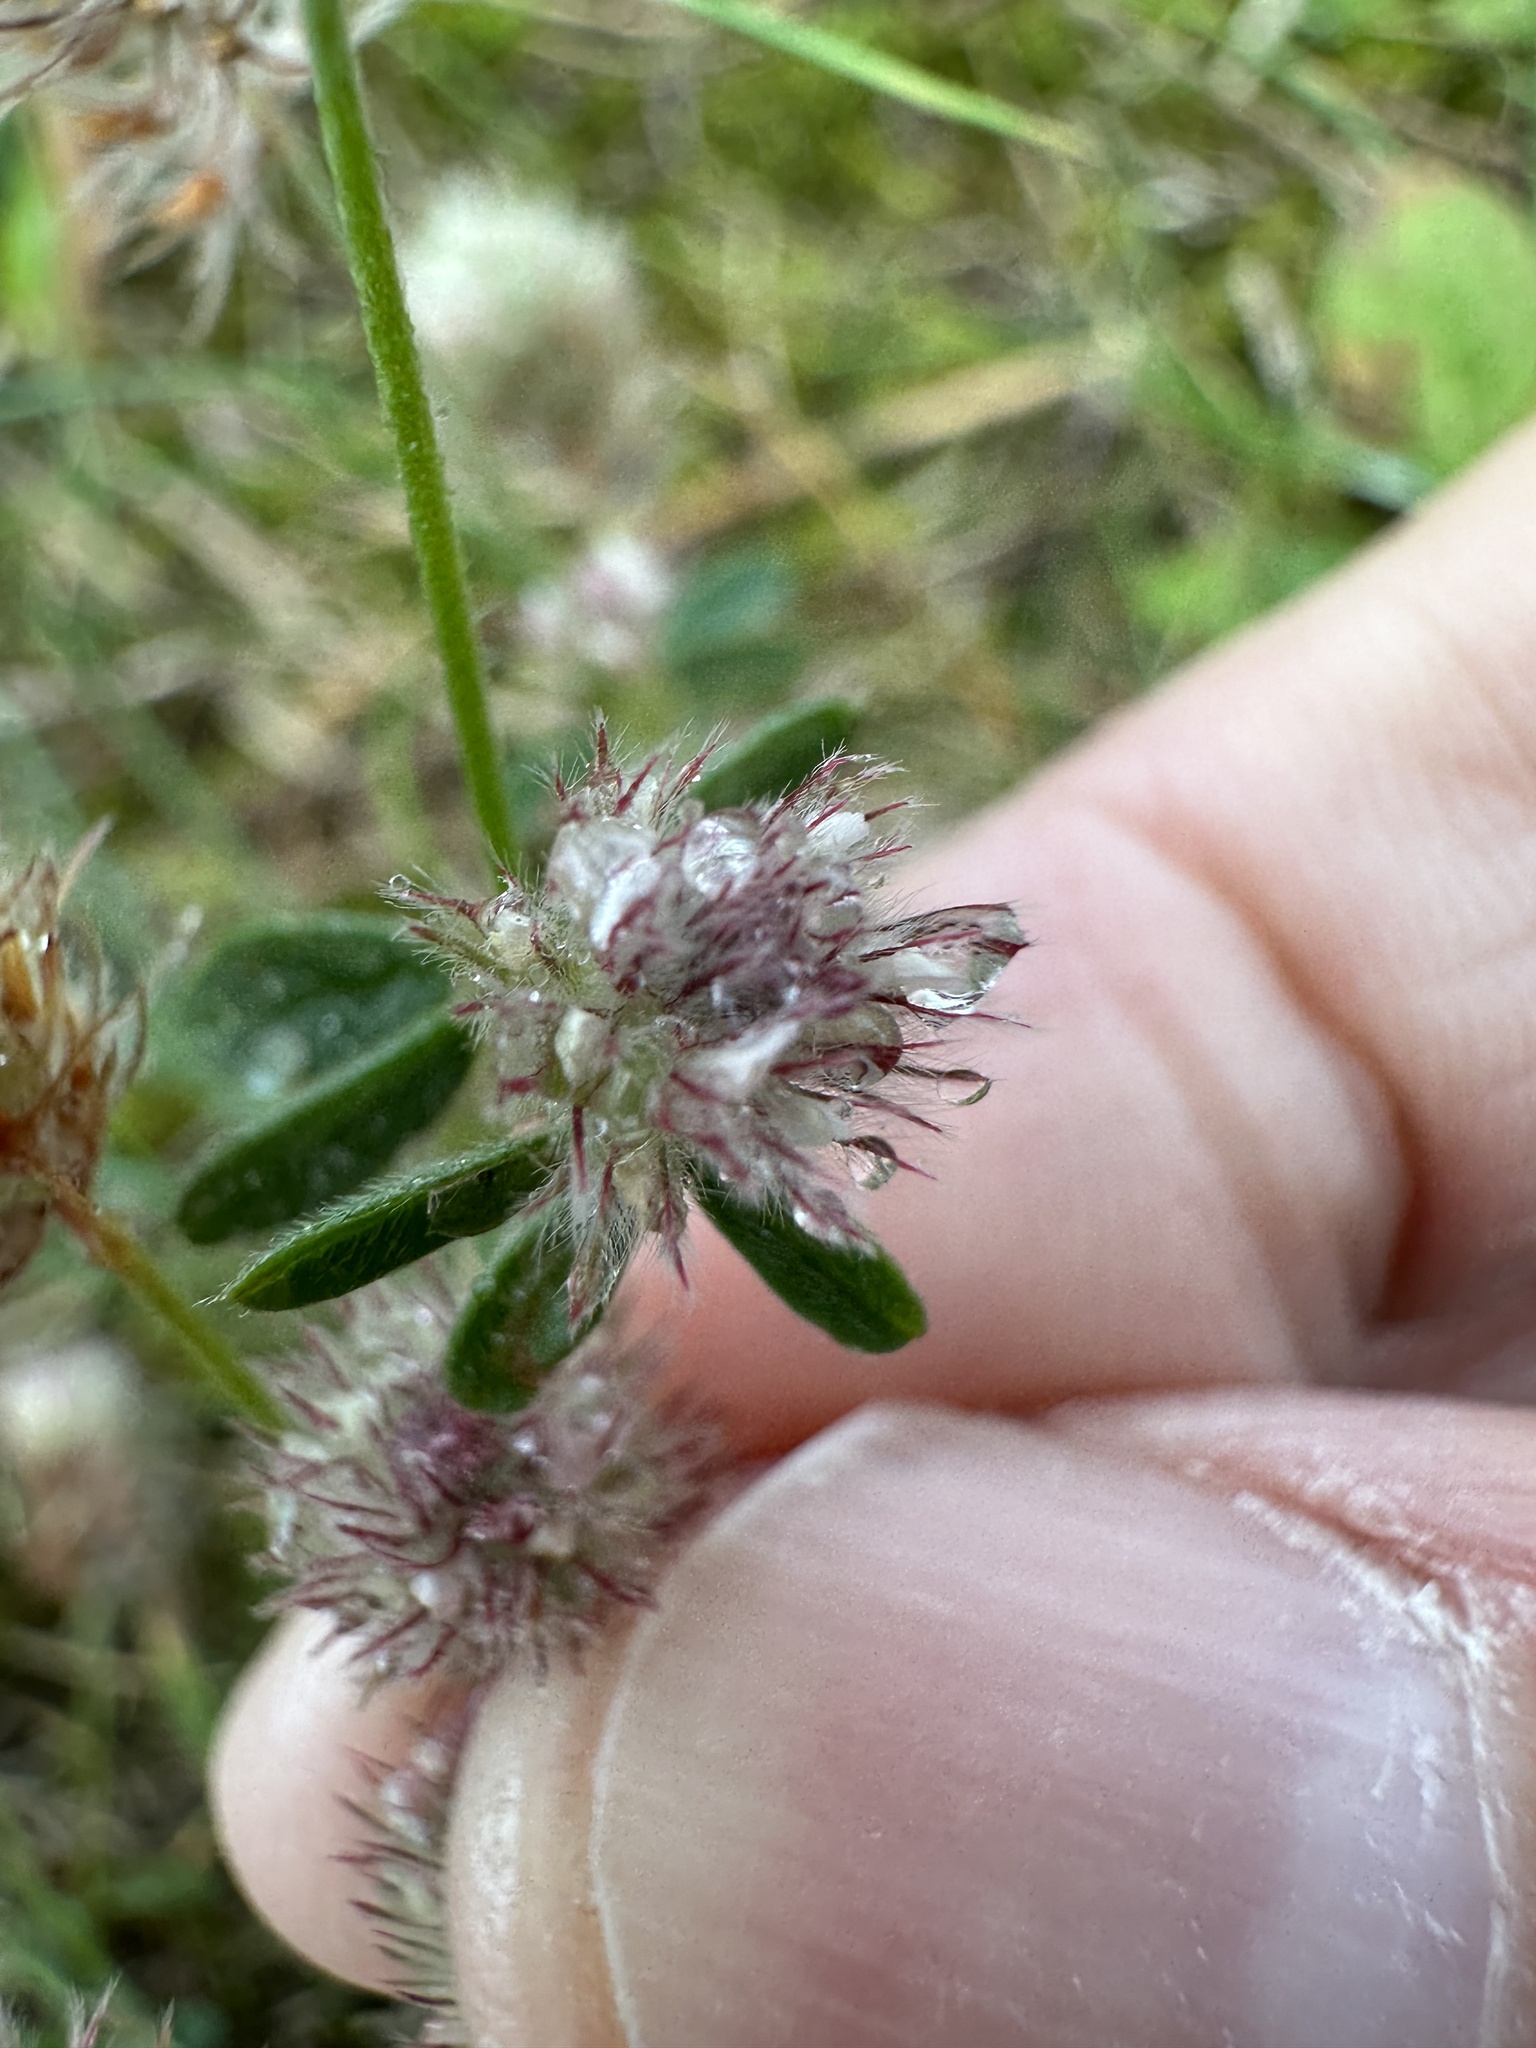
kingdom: Plantae
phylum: Tracheophyta
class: Magnoliopsida
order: Fabales
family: Fabaceae
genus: Trifolium
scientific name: Trifolium arvense
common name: Hare's-foot clover
